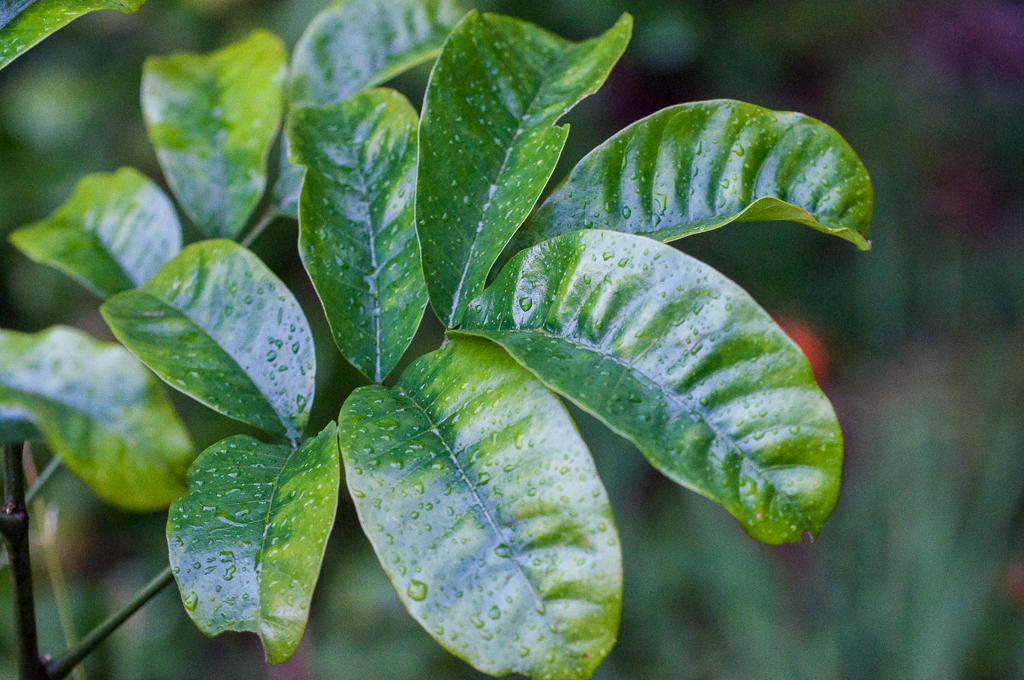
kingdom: Plantae
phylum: Tracheophyta
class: Magnoliopsida
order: Sapindales
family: Meliaceae
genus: Trichilia
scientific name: Trichilia emetica
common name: Christmas-bells
